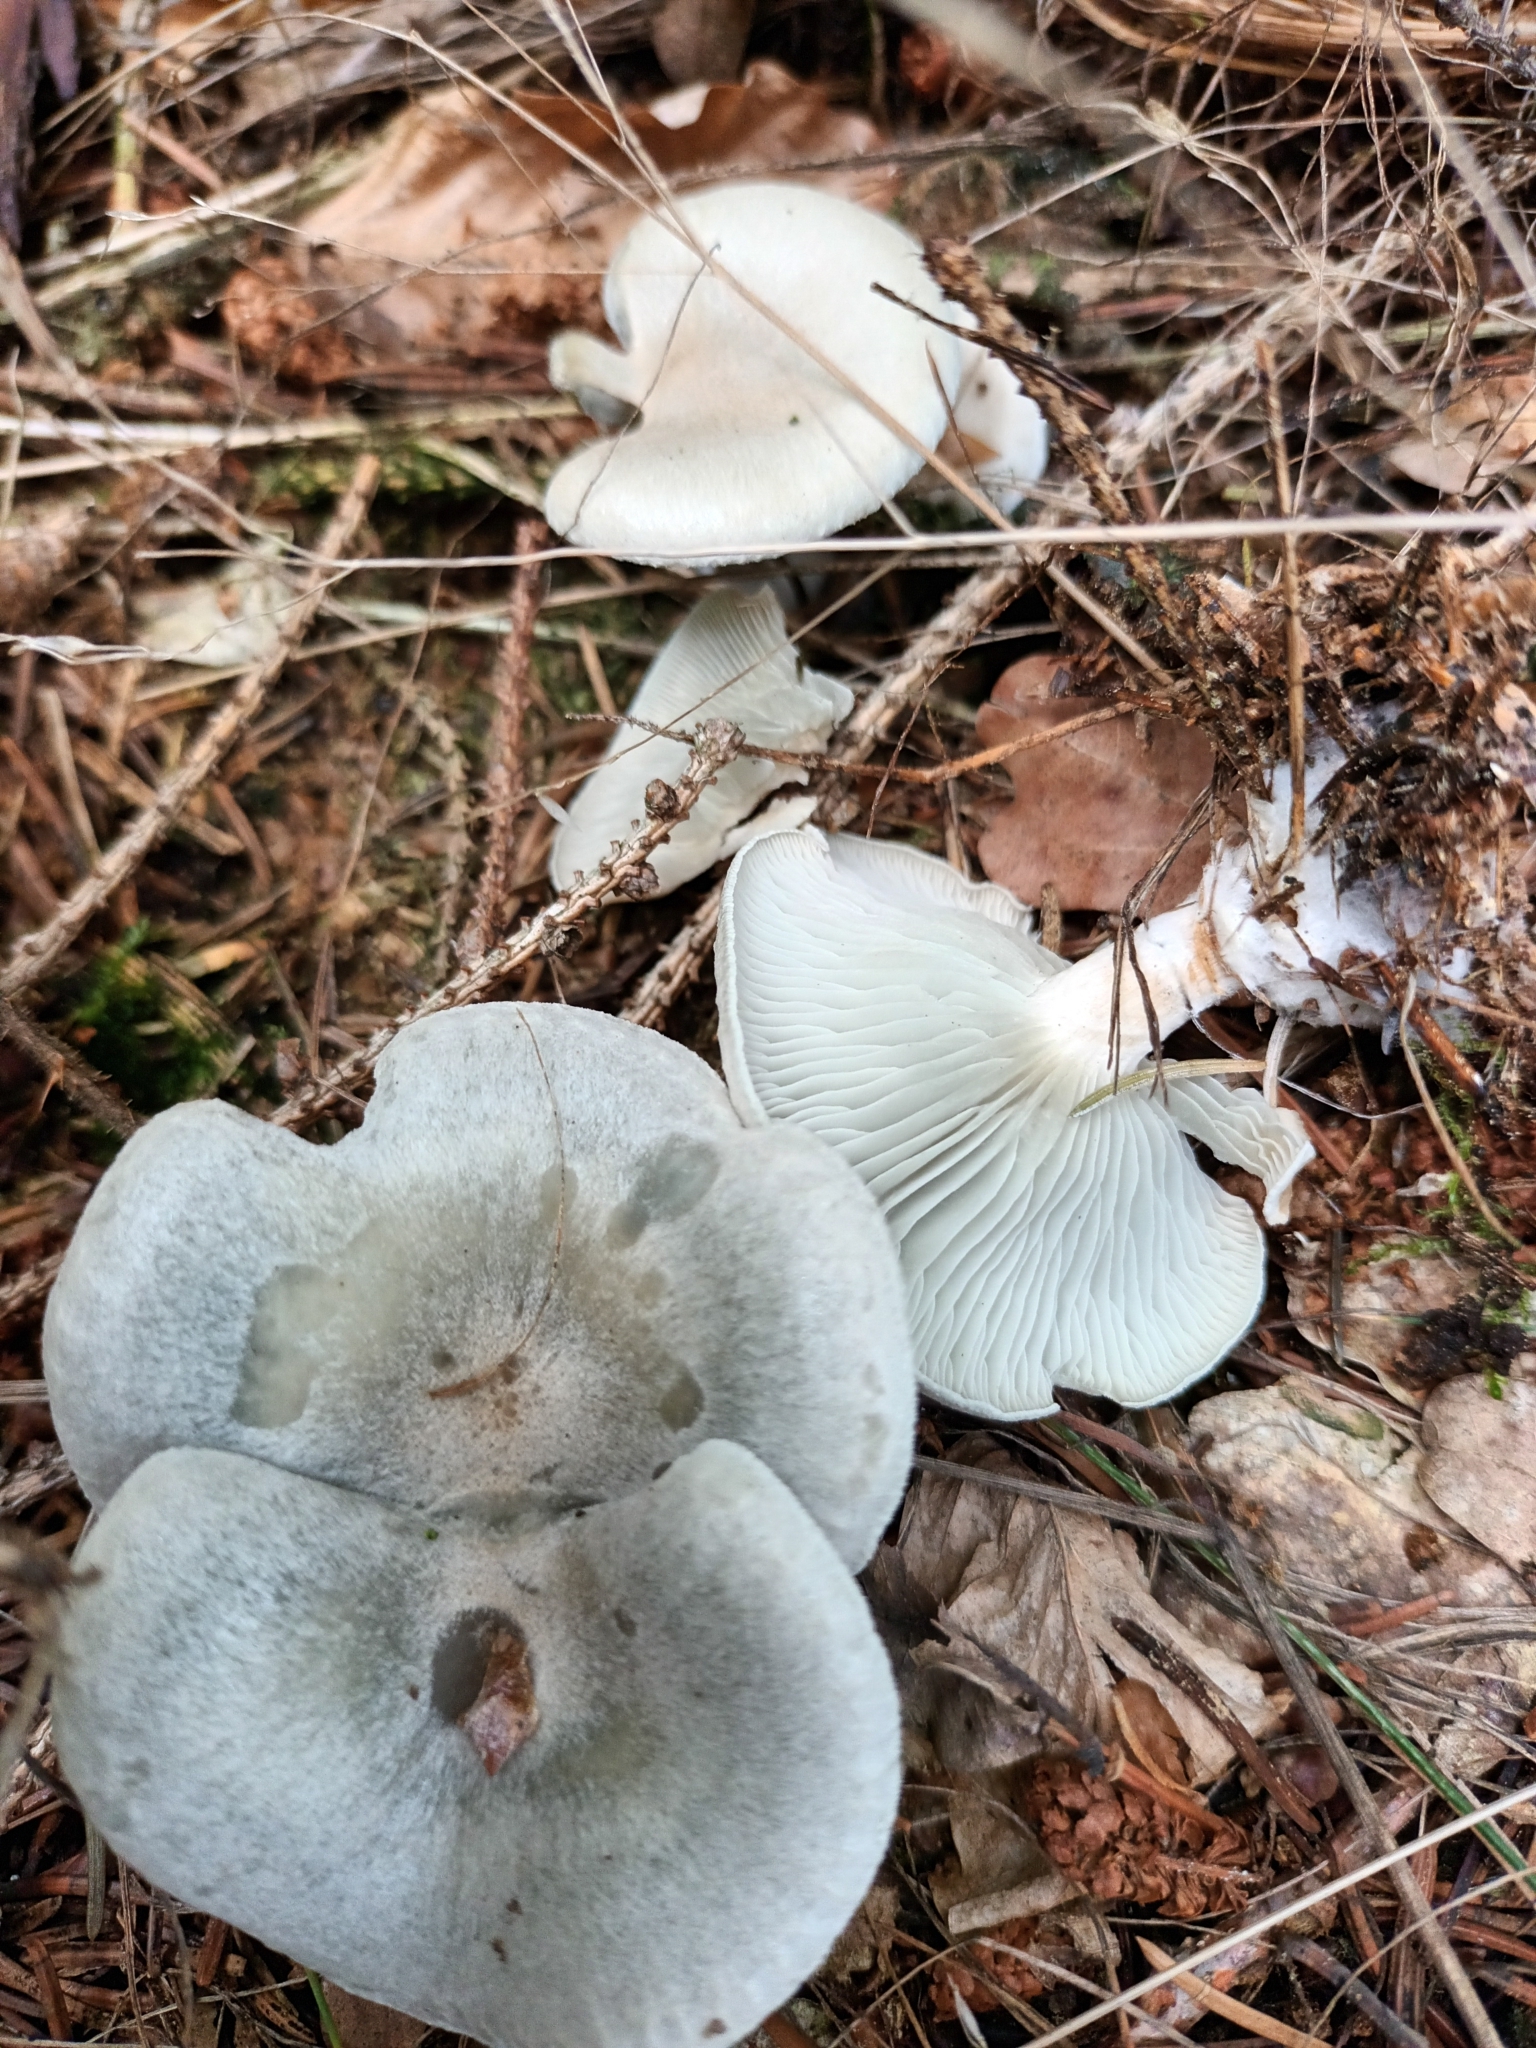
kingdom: Fungi
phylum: Basidiomycota
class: Agaricomycetes
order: Agaricales
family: Tricholomataceae
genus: Collybia
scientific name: Collybia
